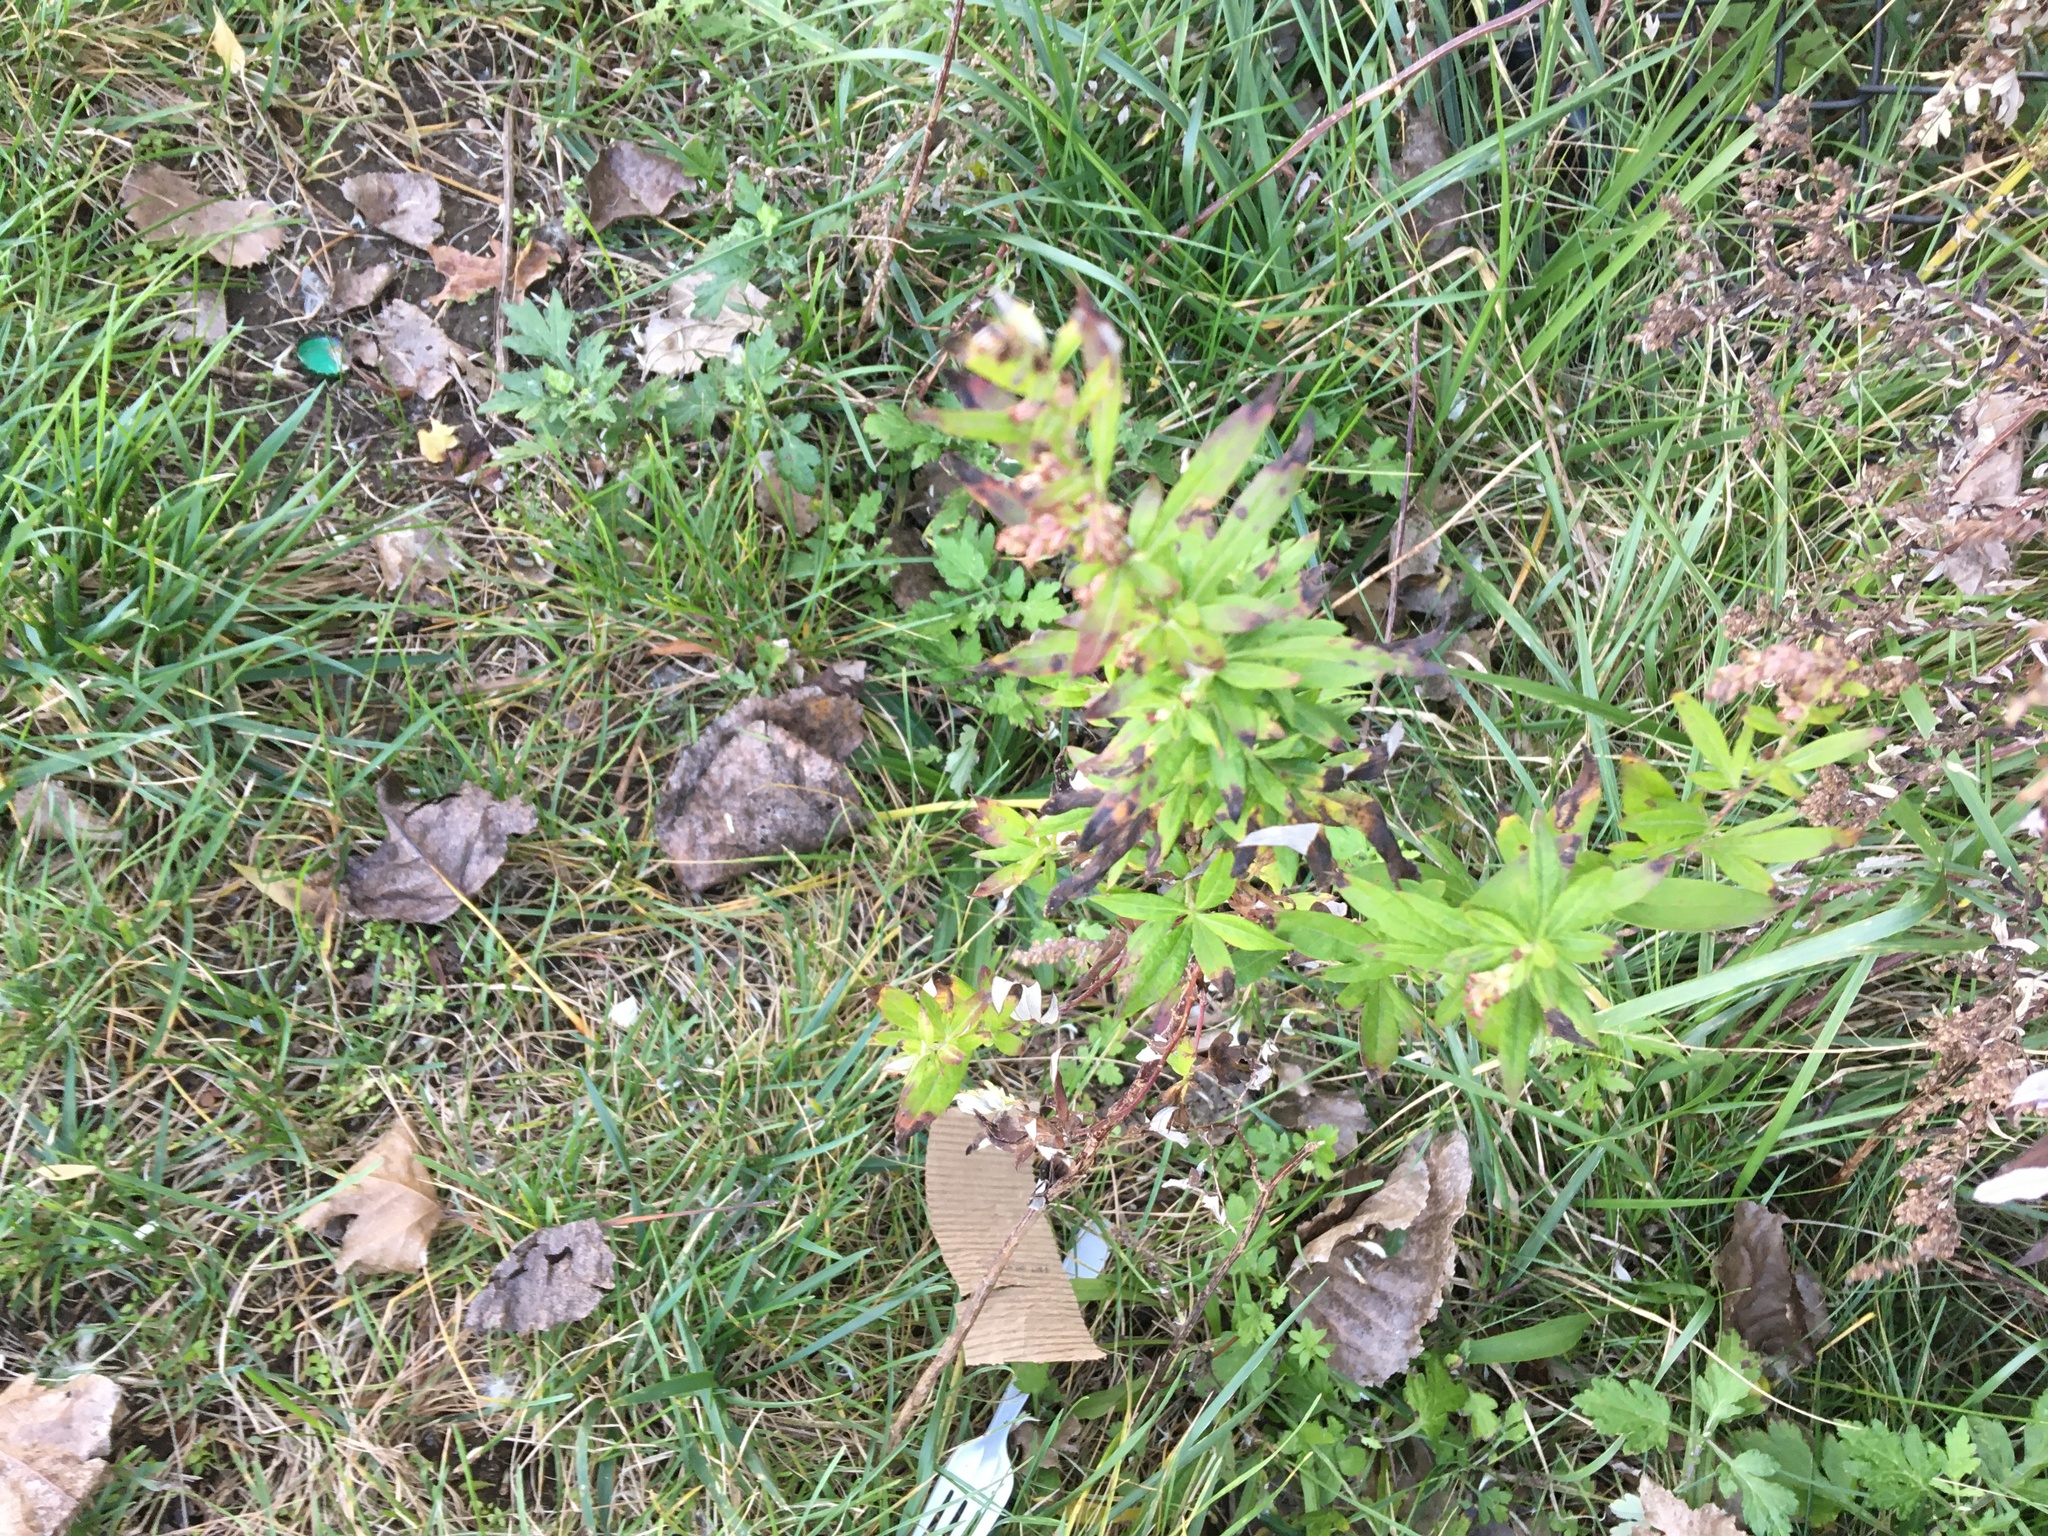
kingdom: Plantae
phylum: Tracheophyta
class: Magnoliopsida
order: Asterales
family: Asteraceae
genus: Artemisia
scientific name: Artemisia vulgaris
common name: Mugwort
